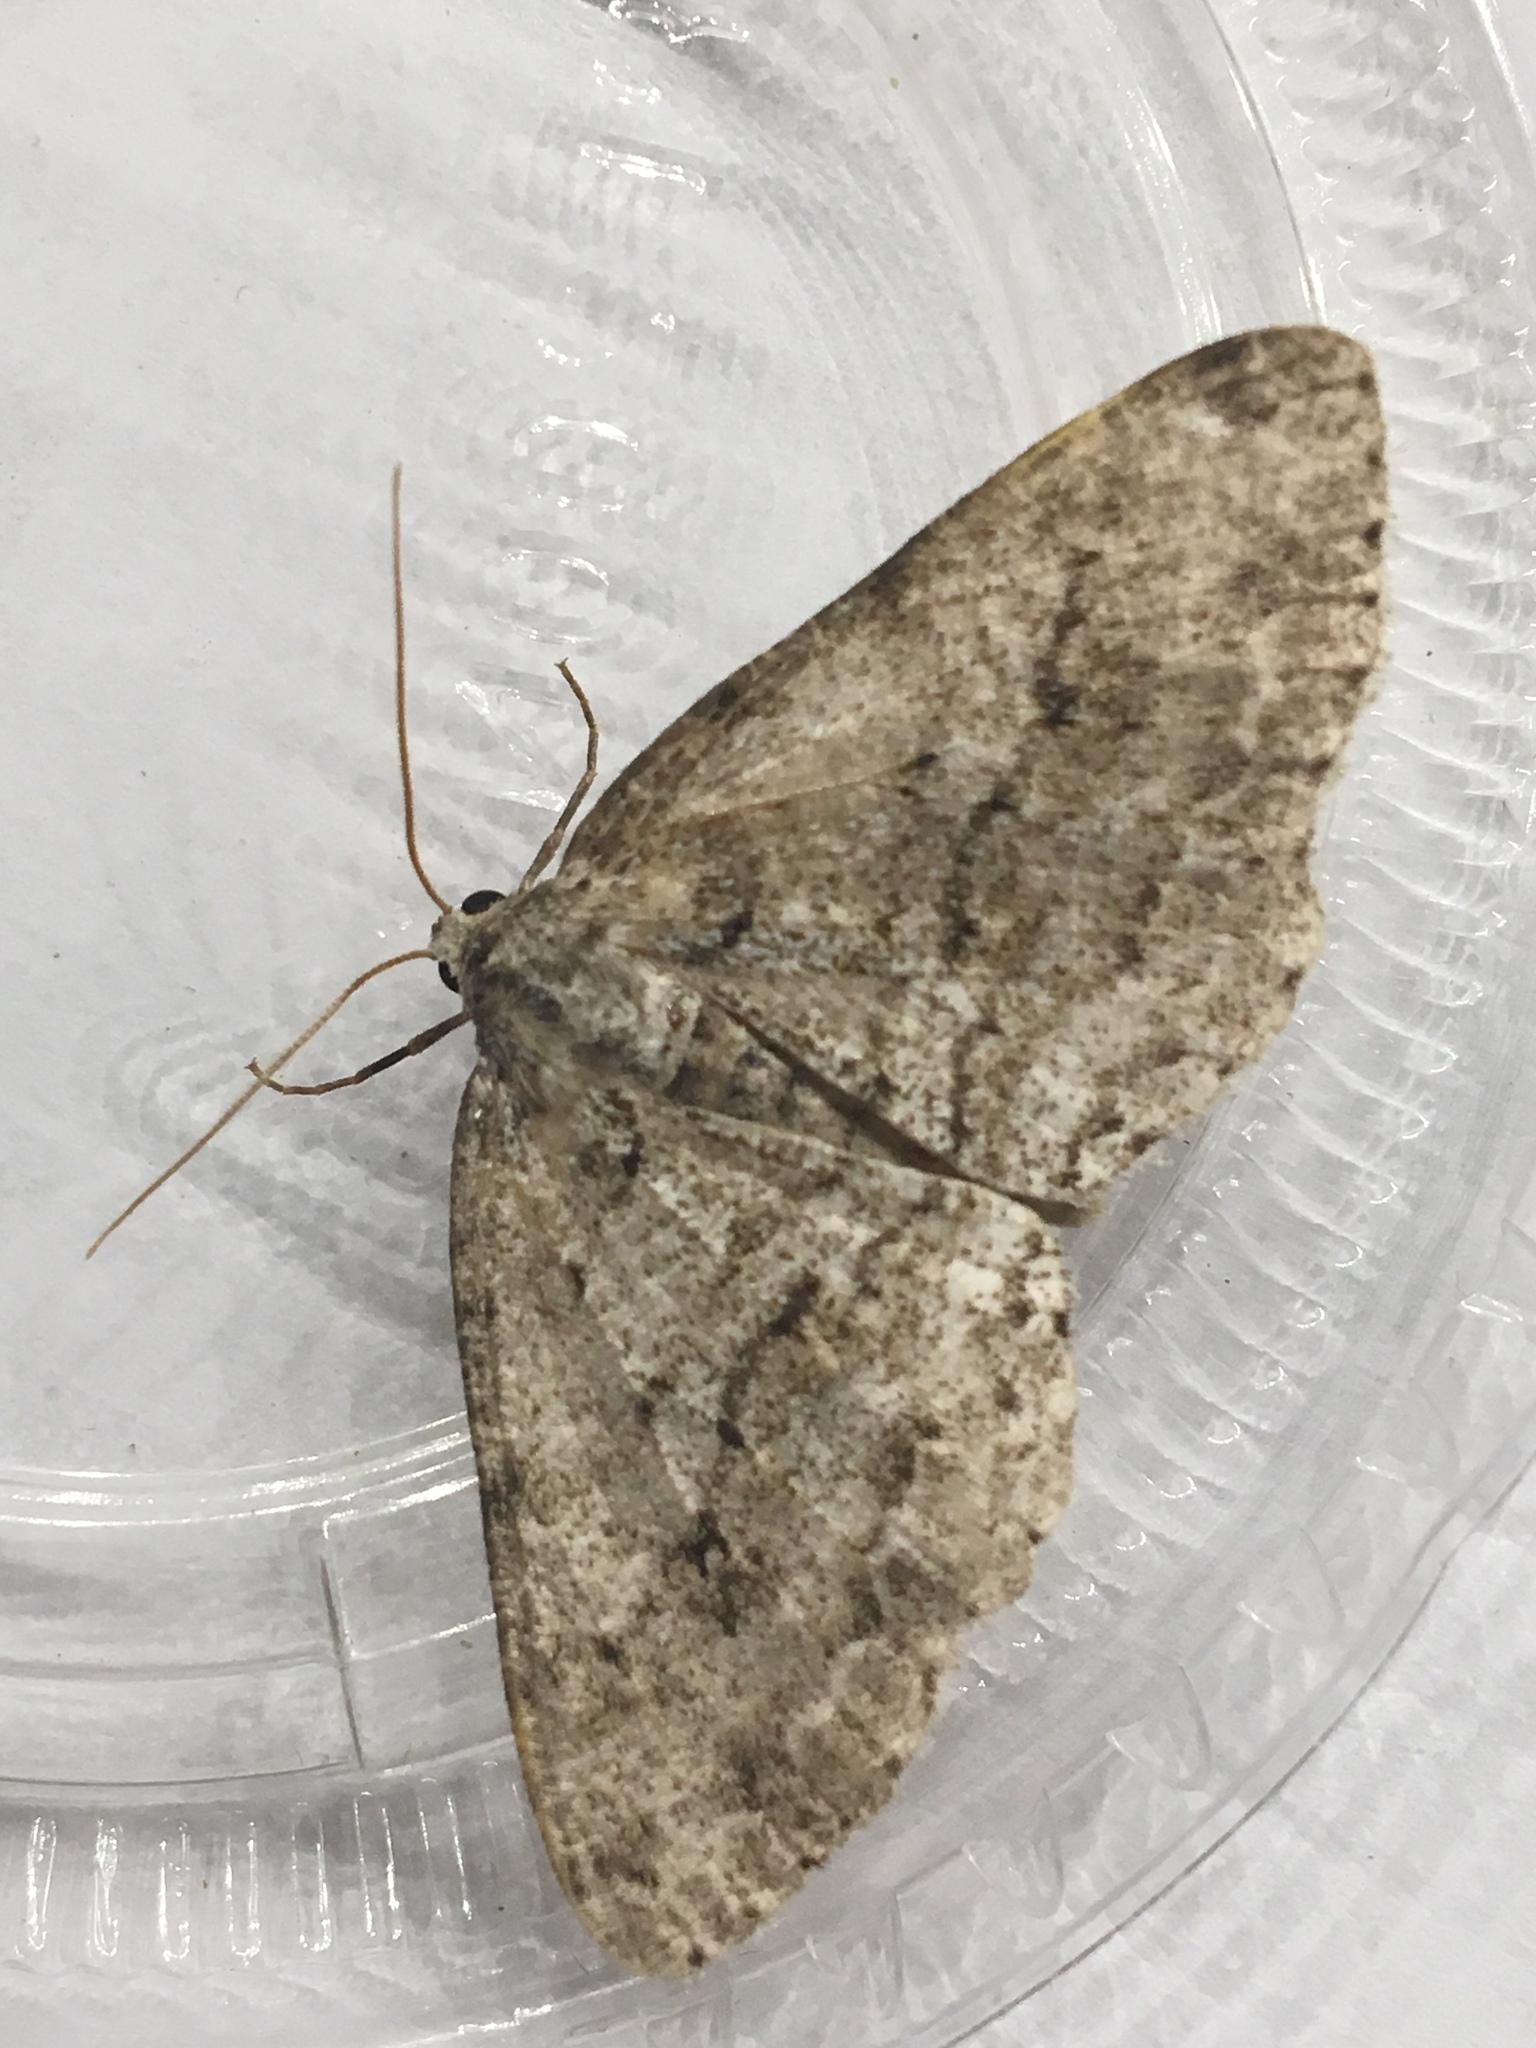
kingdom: Animalia
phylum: Arthropoda
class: Insecta
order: Lepidoptera
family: Geometridae
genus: Ectropis
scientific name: Ectropis crepuscularia
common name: Engrailed
